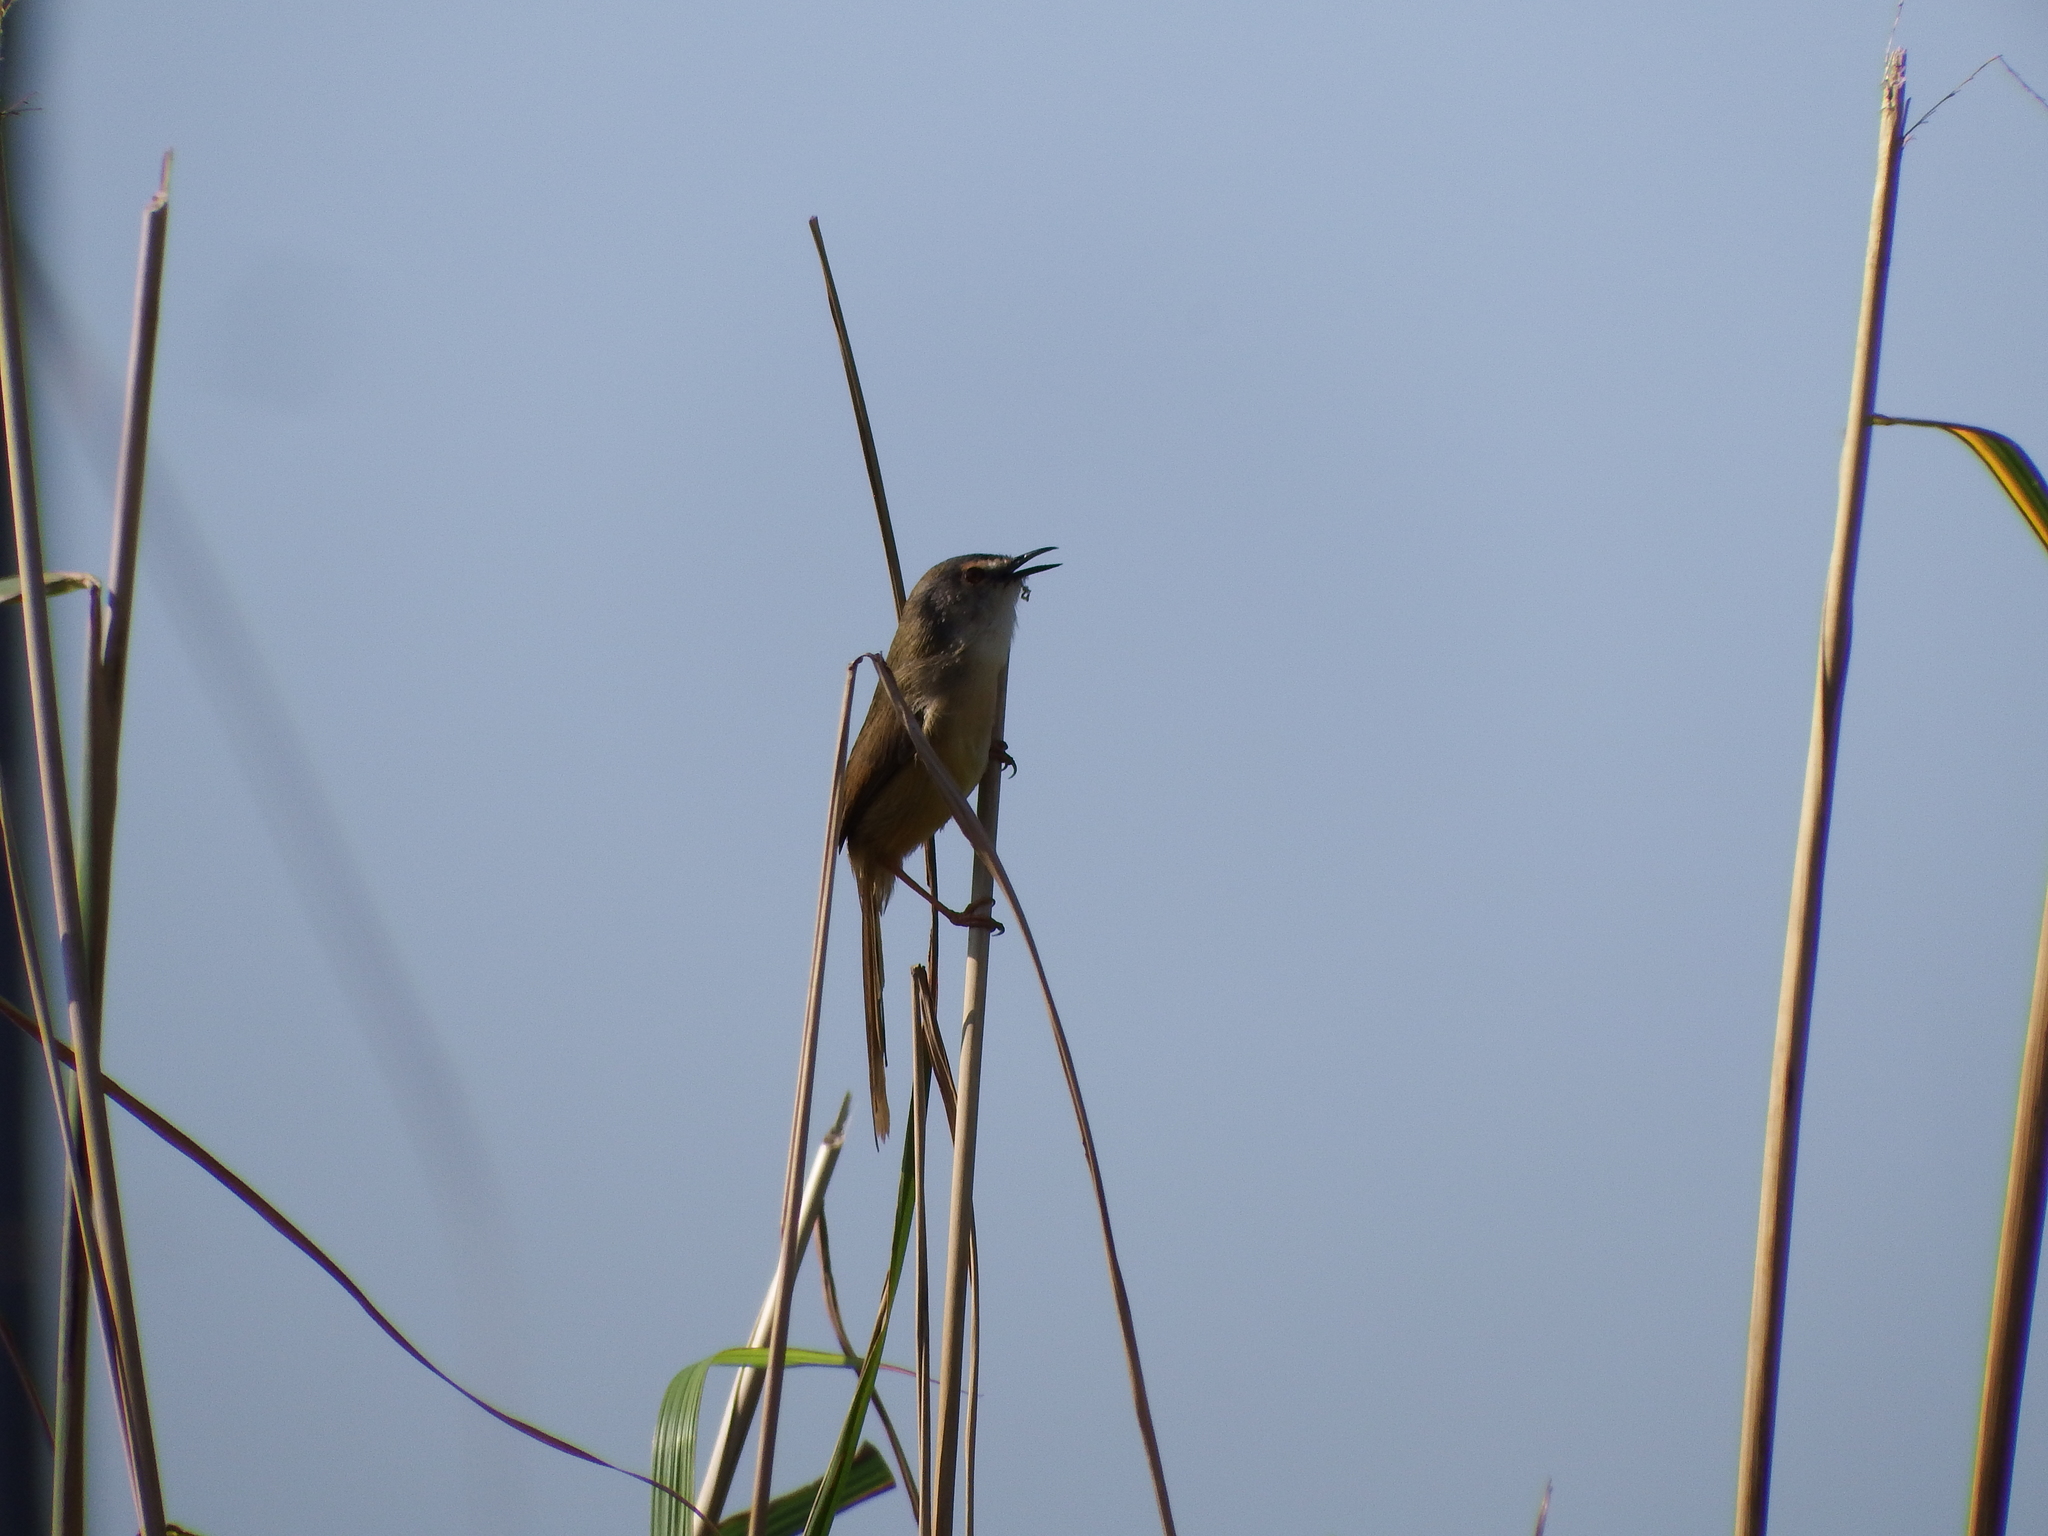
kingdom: Animalia
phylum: Chordata
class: Aves
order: Passeriformes
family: Cisticolidae
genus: Prinia
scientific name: Prinia flaviventris
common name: Yellow-bellied prinia
